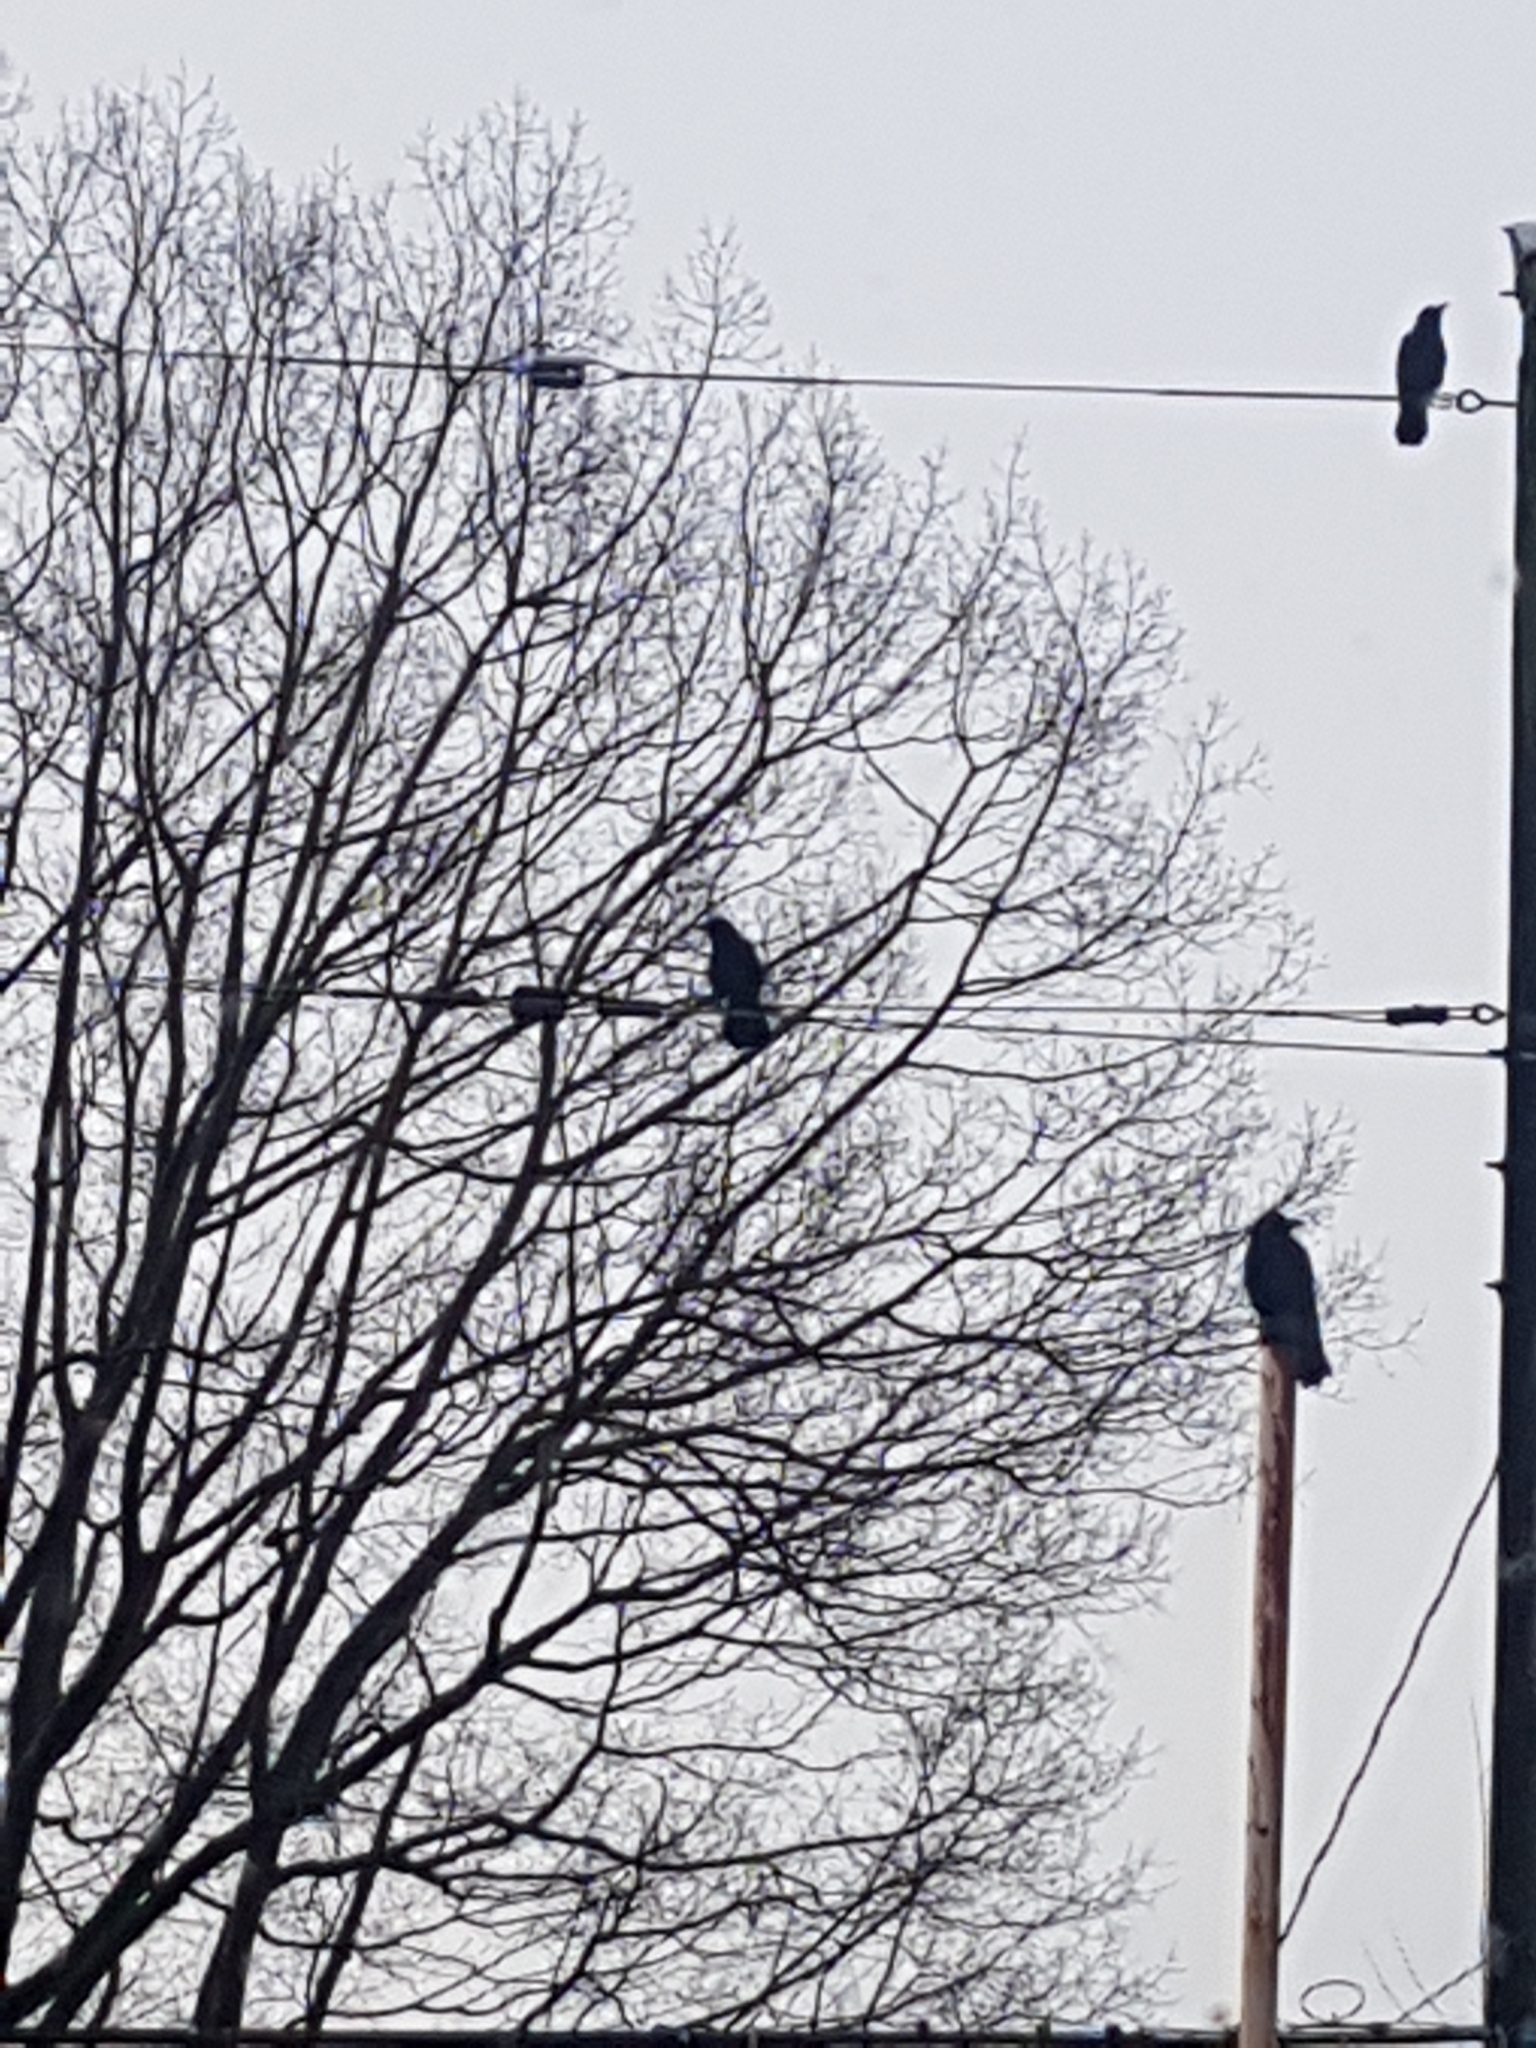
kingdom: Animalia
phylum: Chordata
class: Aves
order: Passeriformes
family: Corvidae
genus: Corvus
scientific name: Corvus brachyrhynchos
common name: American crow
